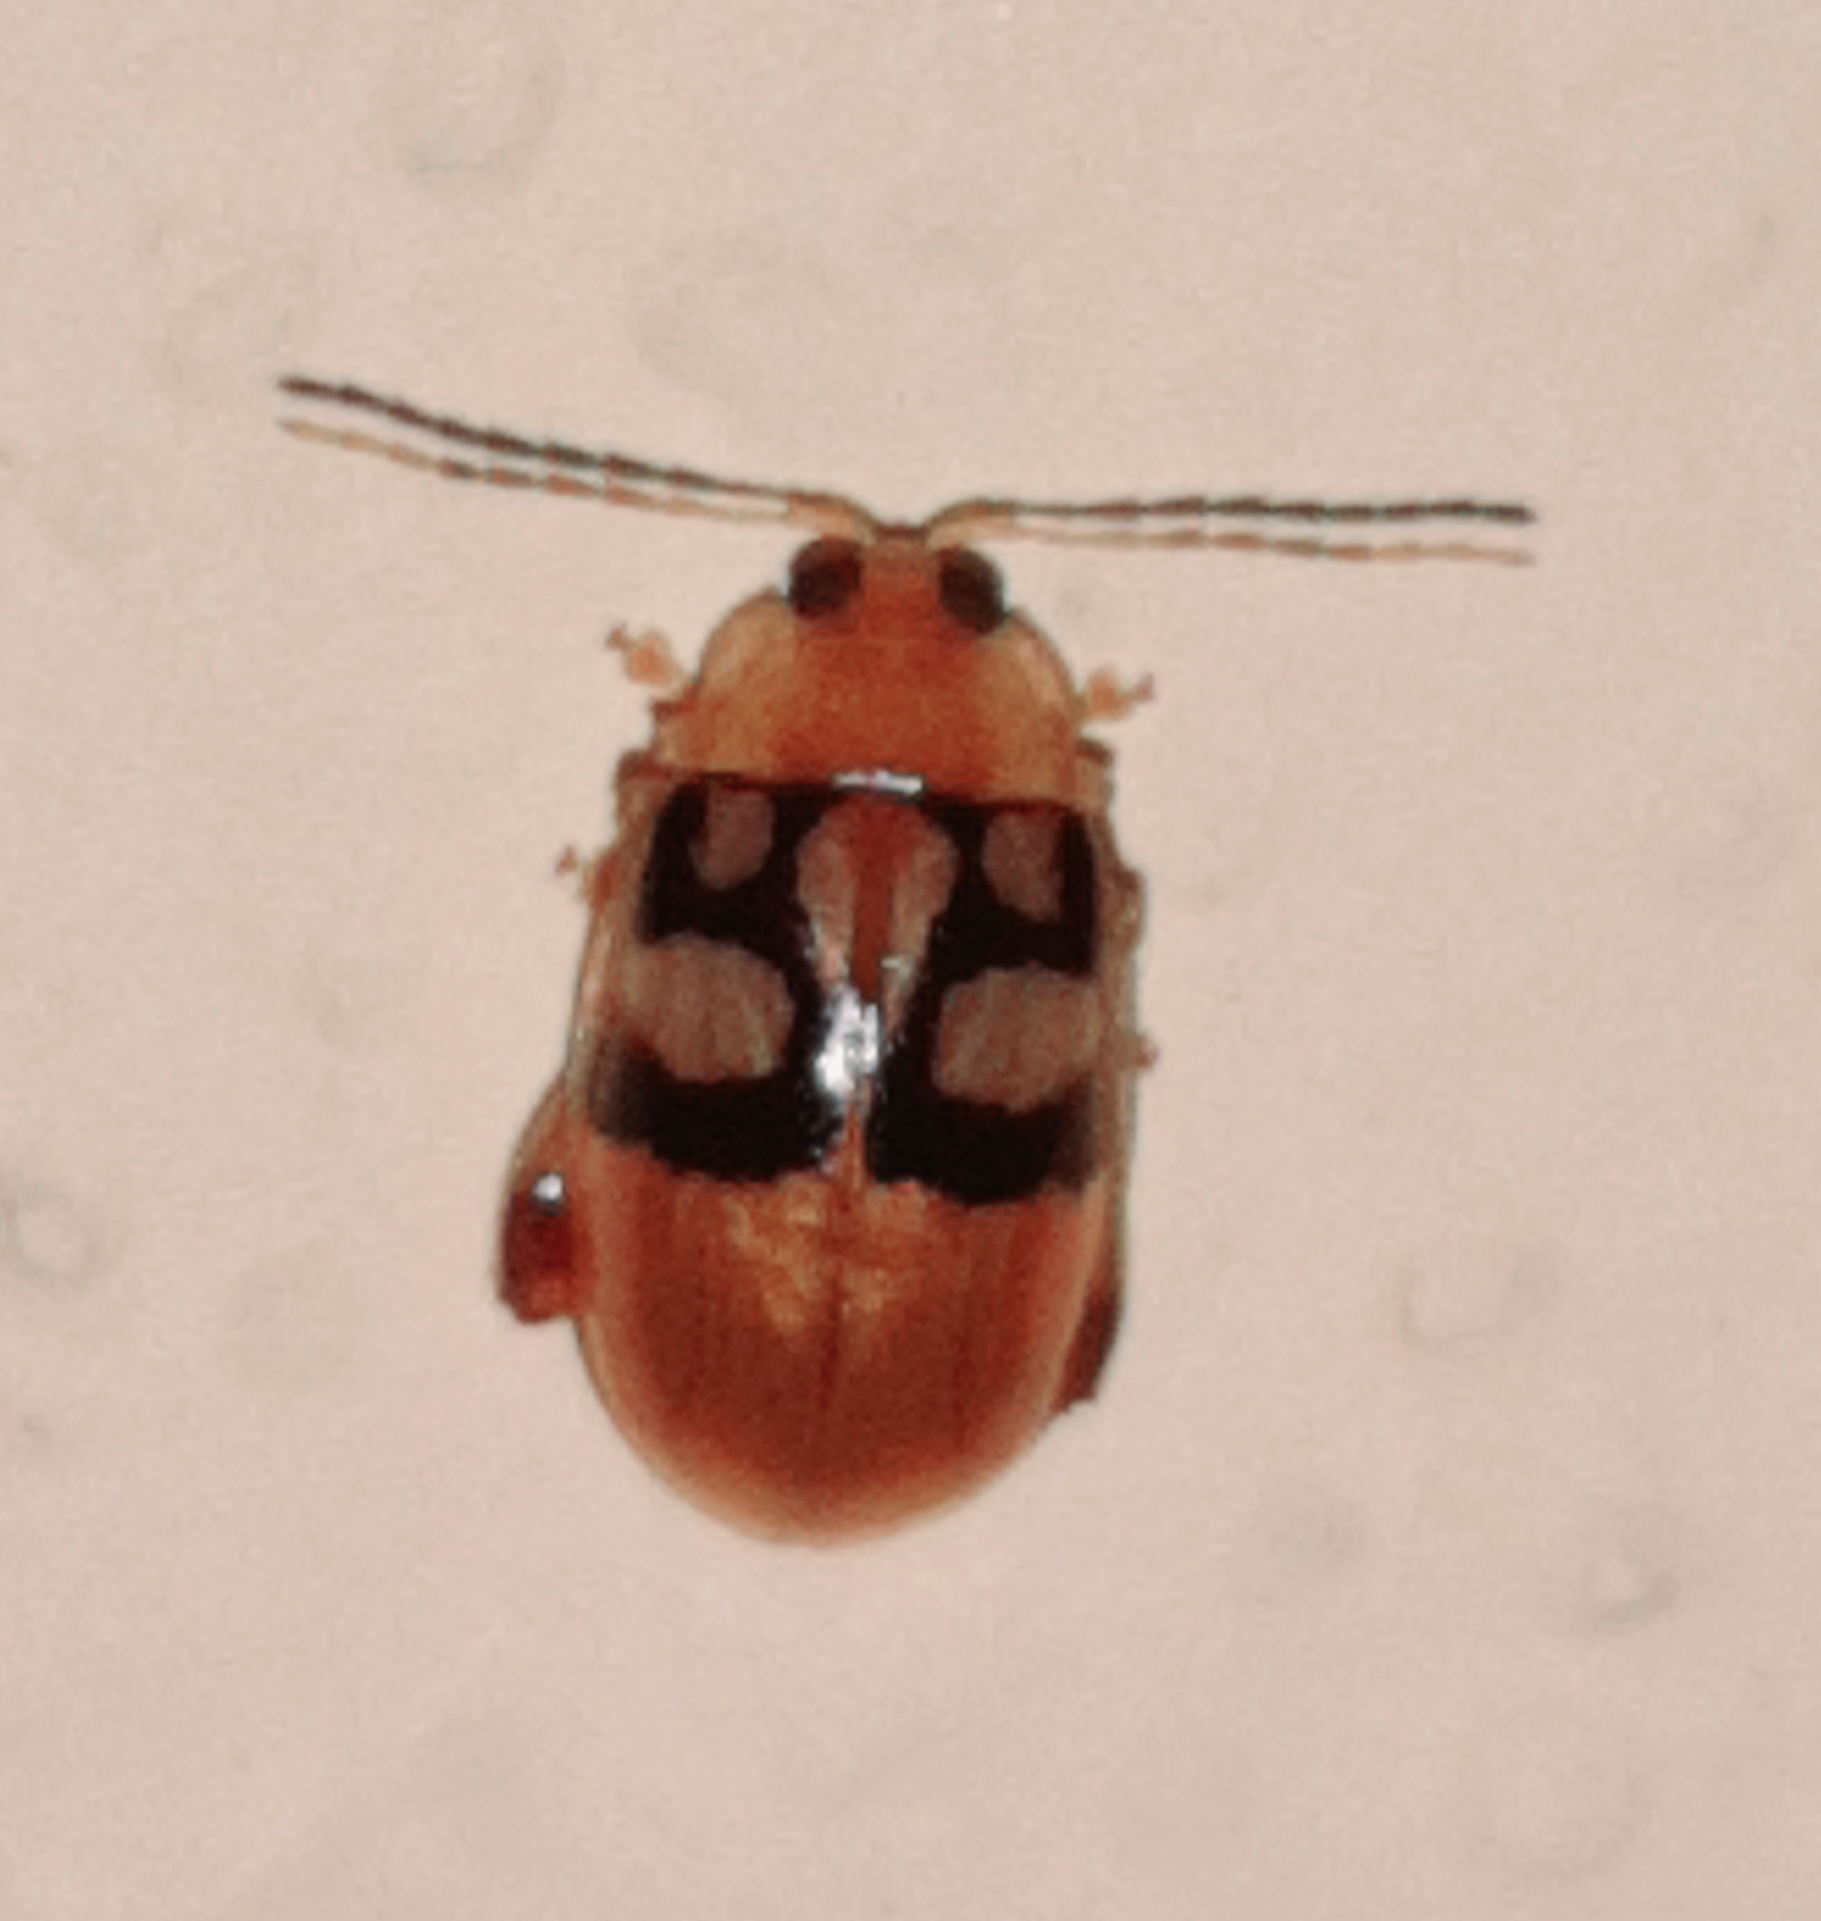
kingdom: Animalia
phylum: Arthropoda
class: Insecta
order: Coleoptera
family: Chrysomelidae
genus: Walterianella
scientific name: Walterianella
